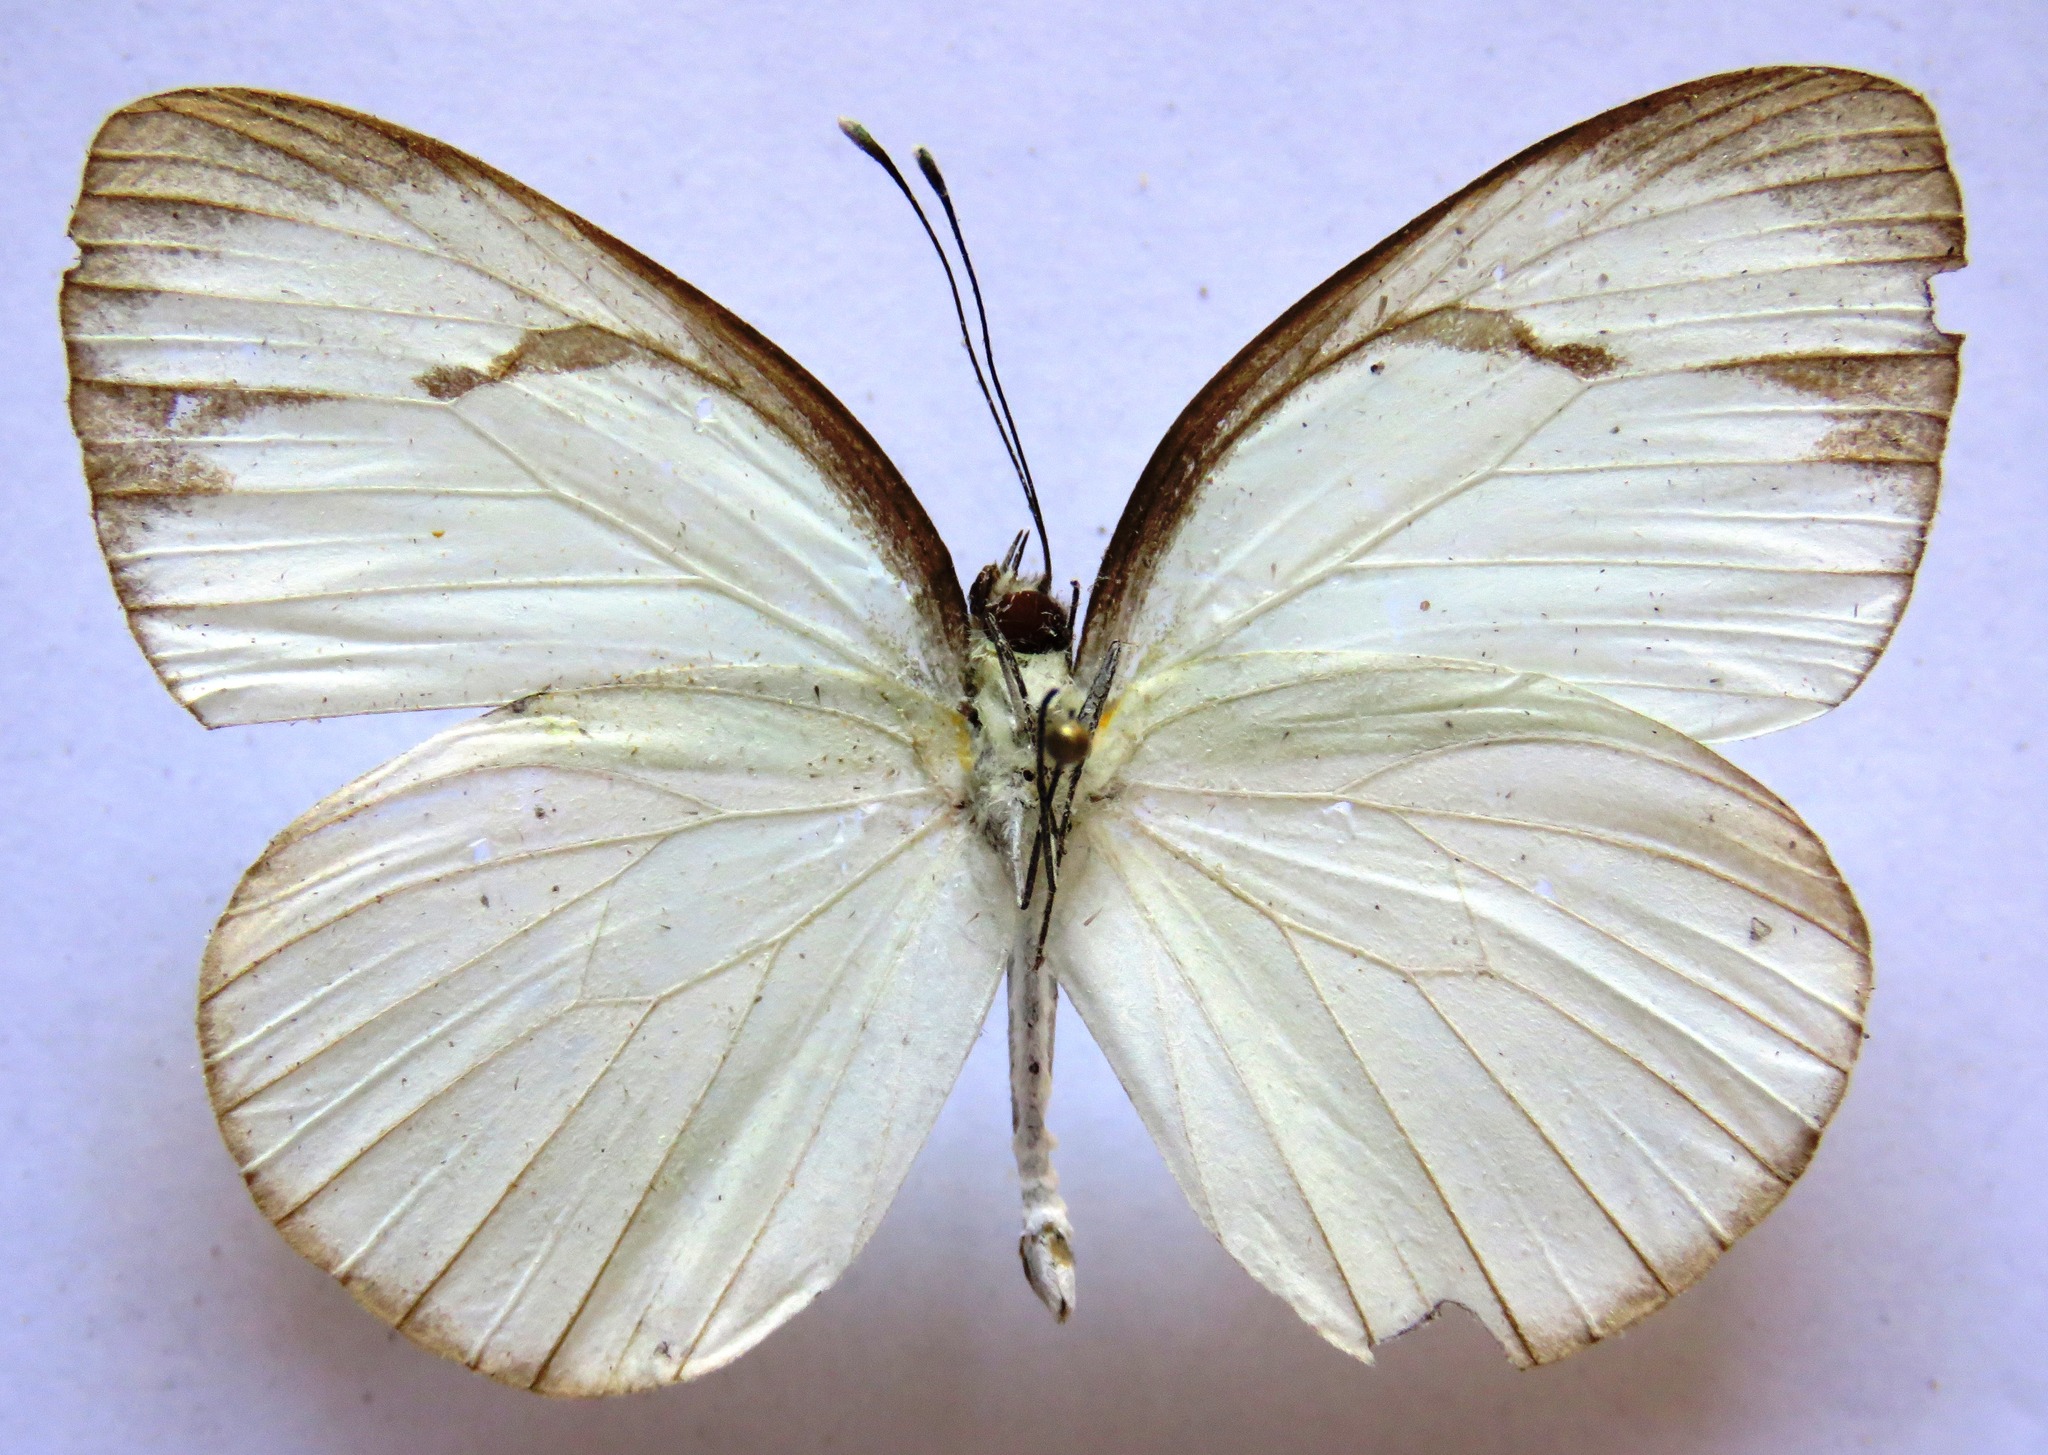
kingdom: Animalia
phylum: Arthropoda
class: Insecta
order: Lepidoptera
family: Pieridae
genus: Itaballia
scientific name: Itaballia demophile
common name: Cross-barred white
